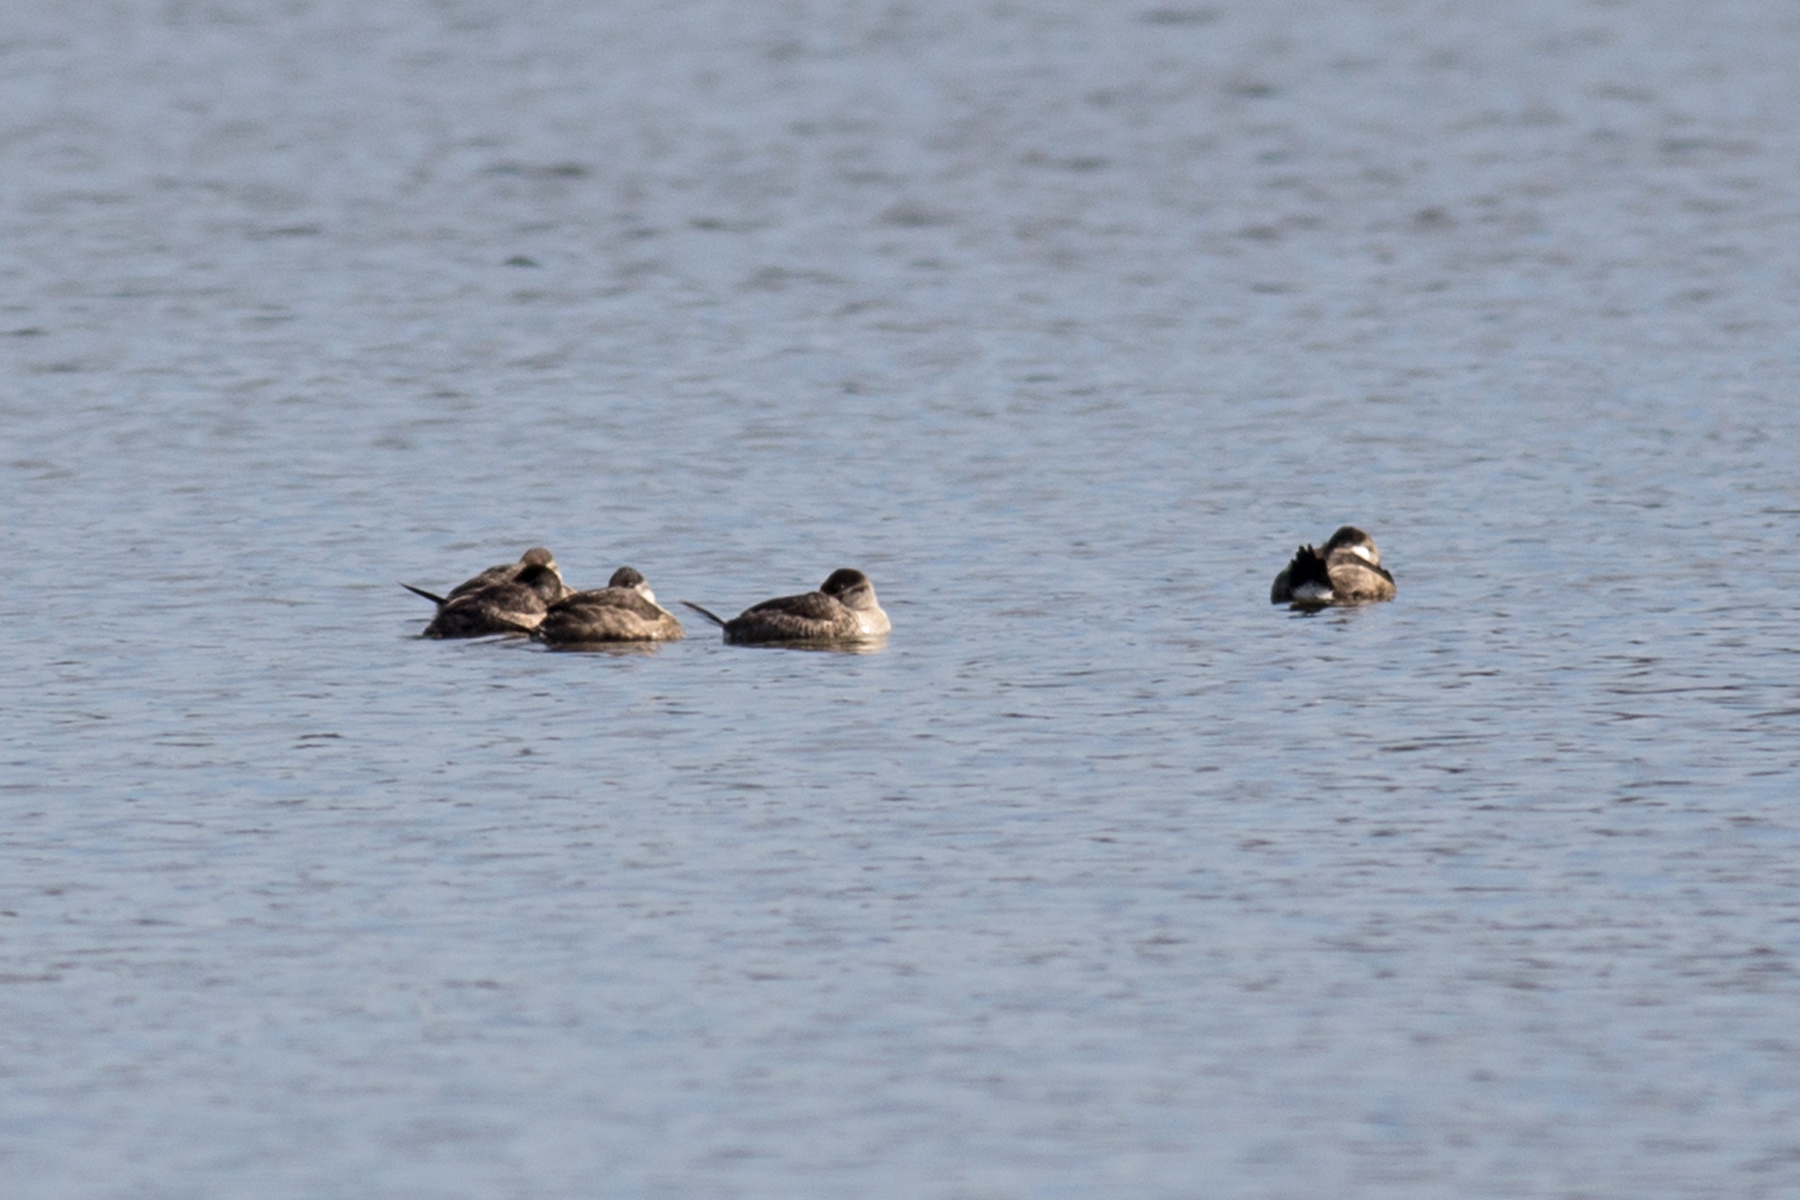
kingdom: Animalia
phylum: Chordata
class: Aves
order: Anseriformes
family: Anatidae
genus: Oxyura
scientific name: Oxyura jamaicensis
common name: Ruddy duck
